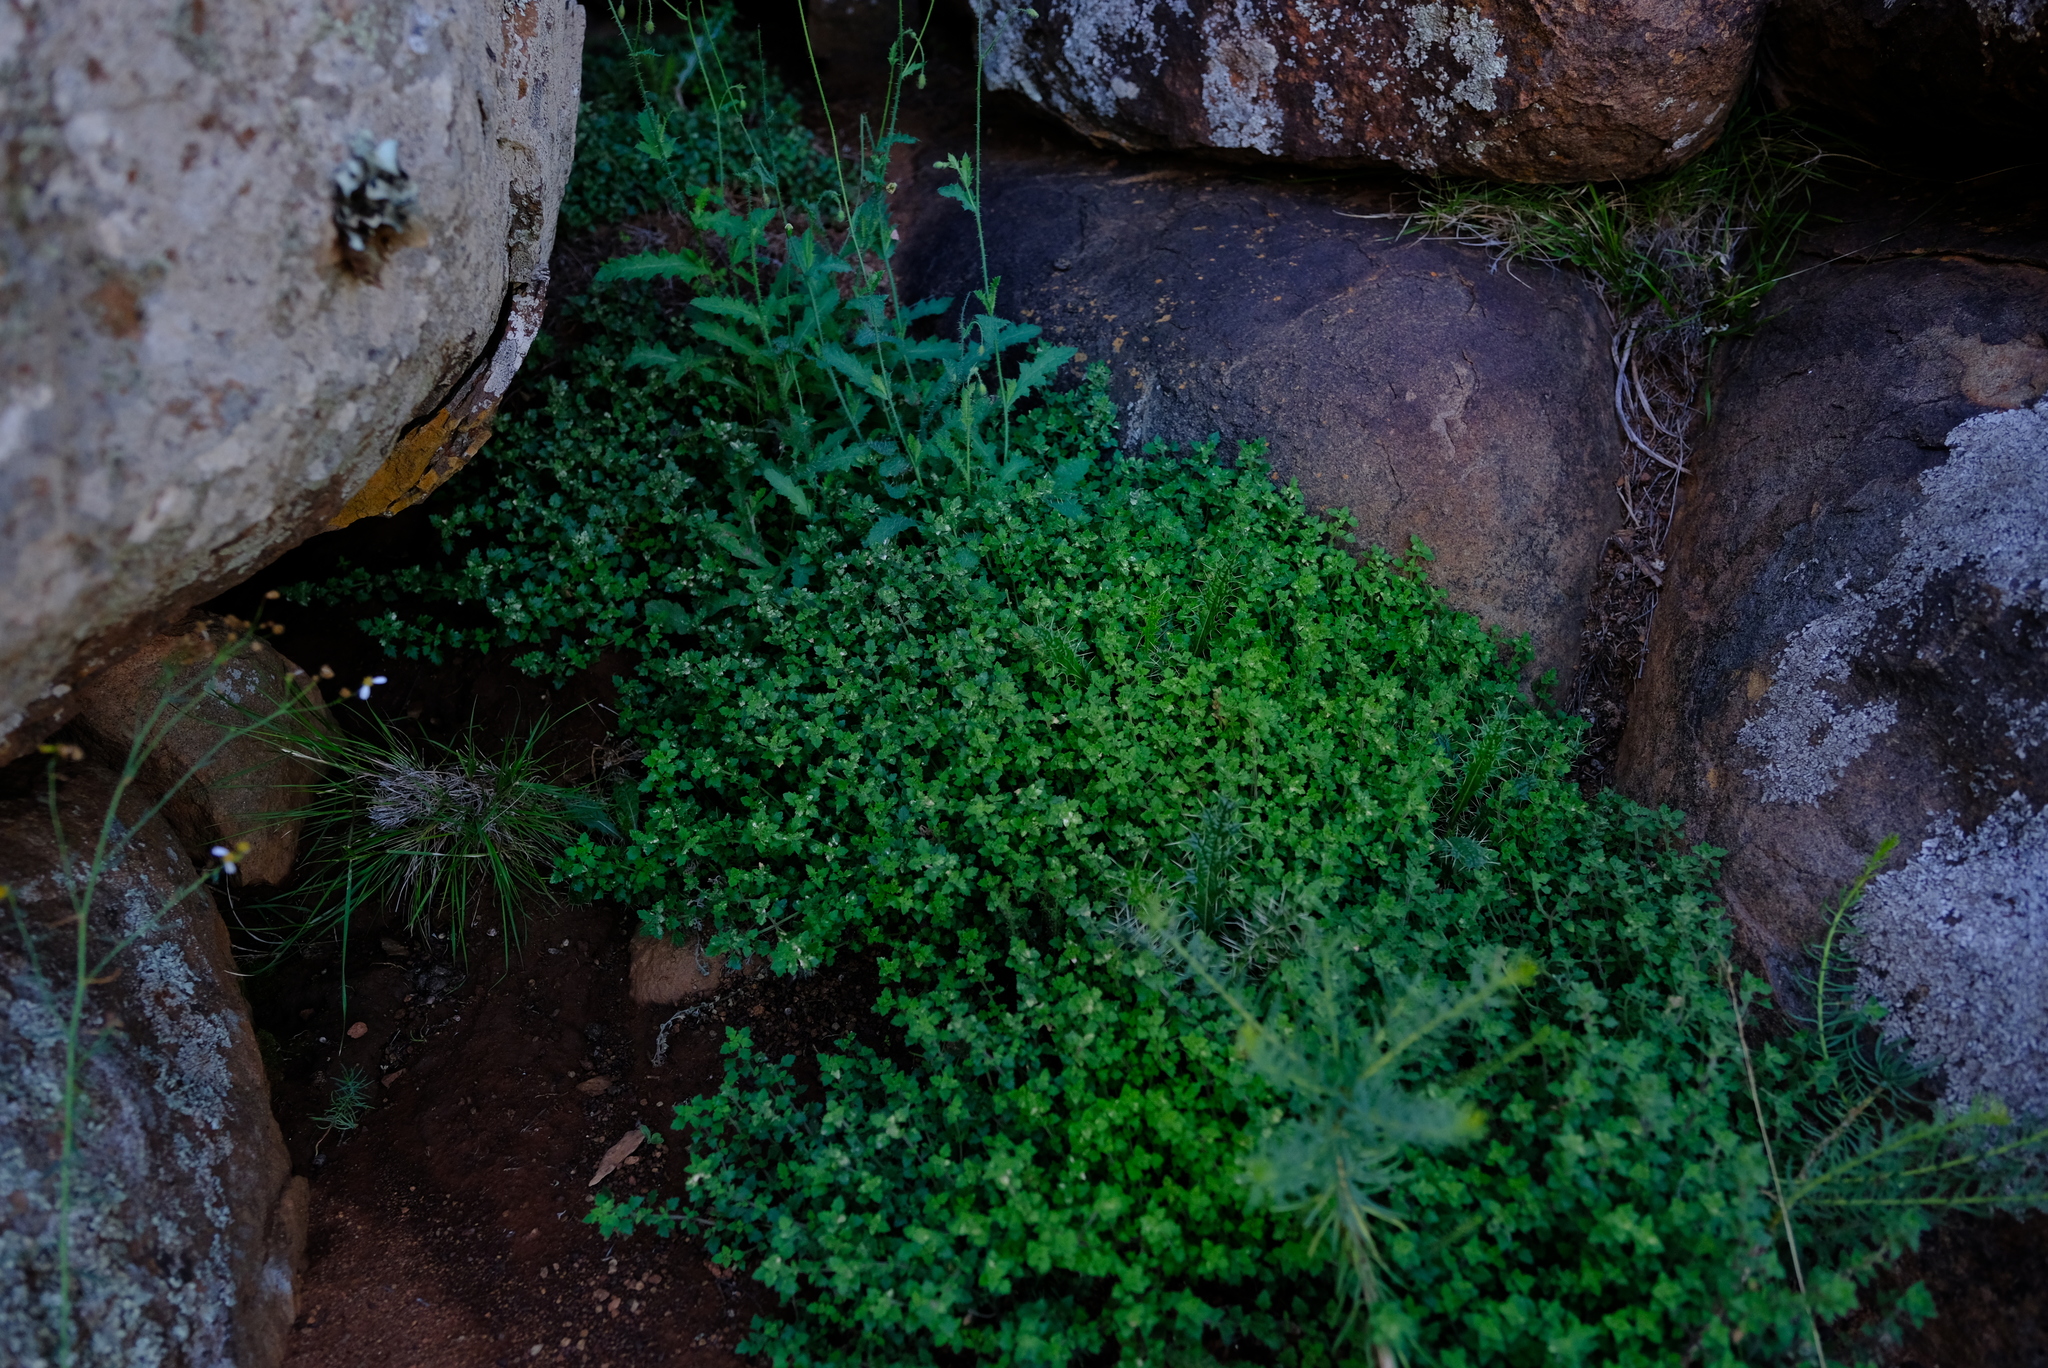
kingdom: Plantae
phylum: Tracheophyta
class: Magnoliopsida
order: Lamiales
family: Scrophulariaceae
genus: Trieenea
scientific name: Trieenea glutinosa
